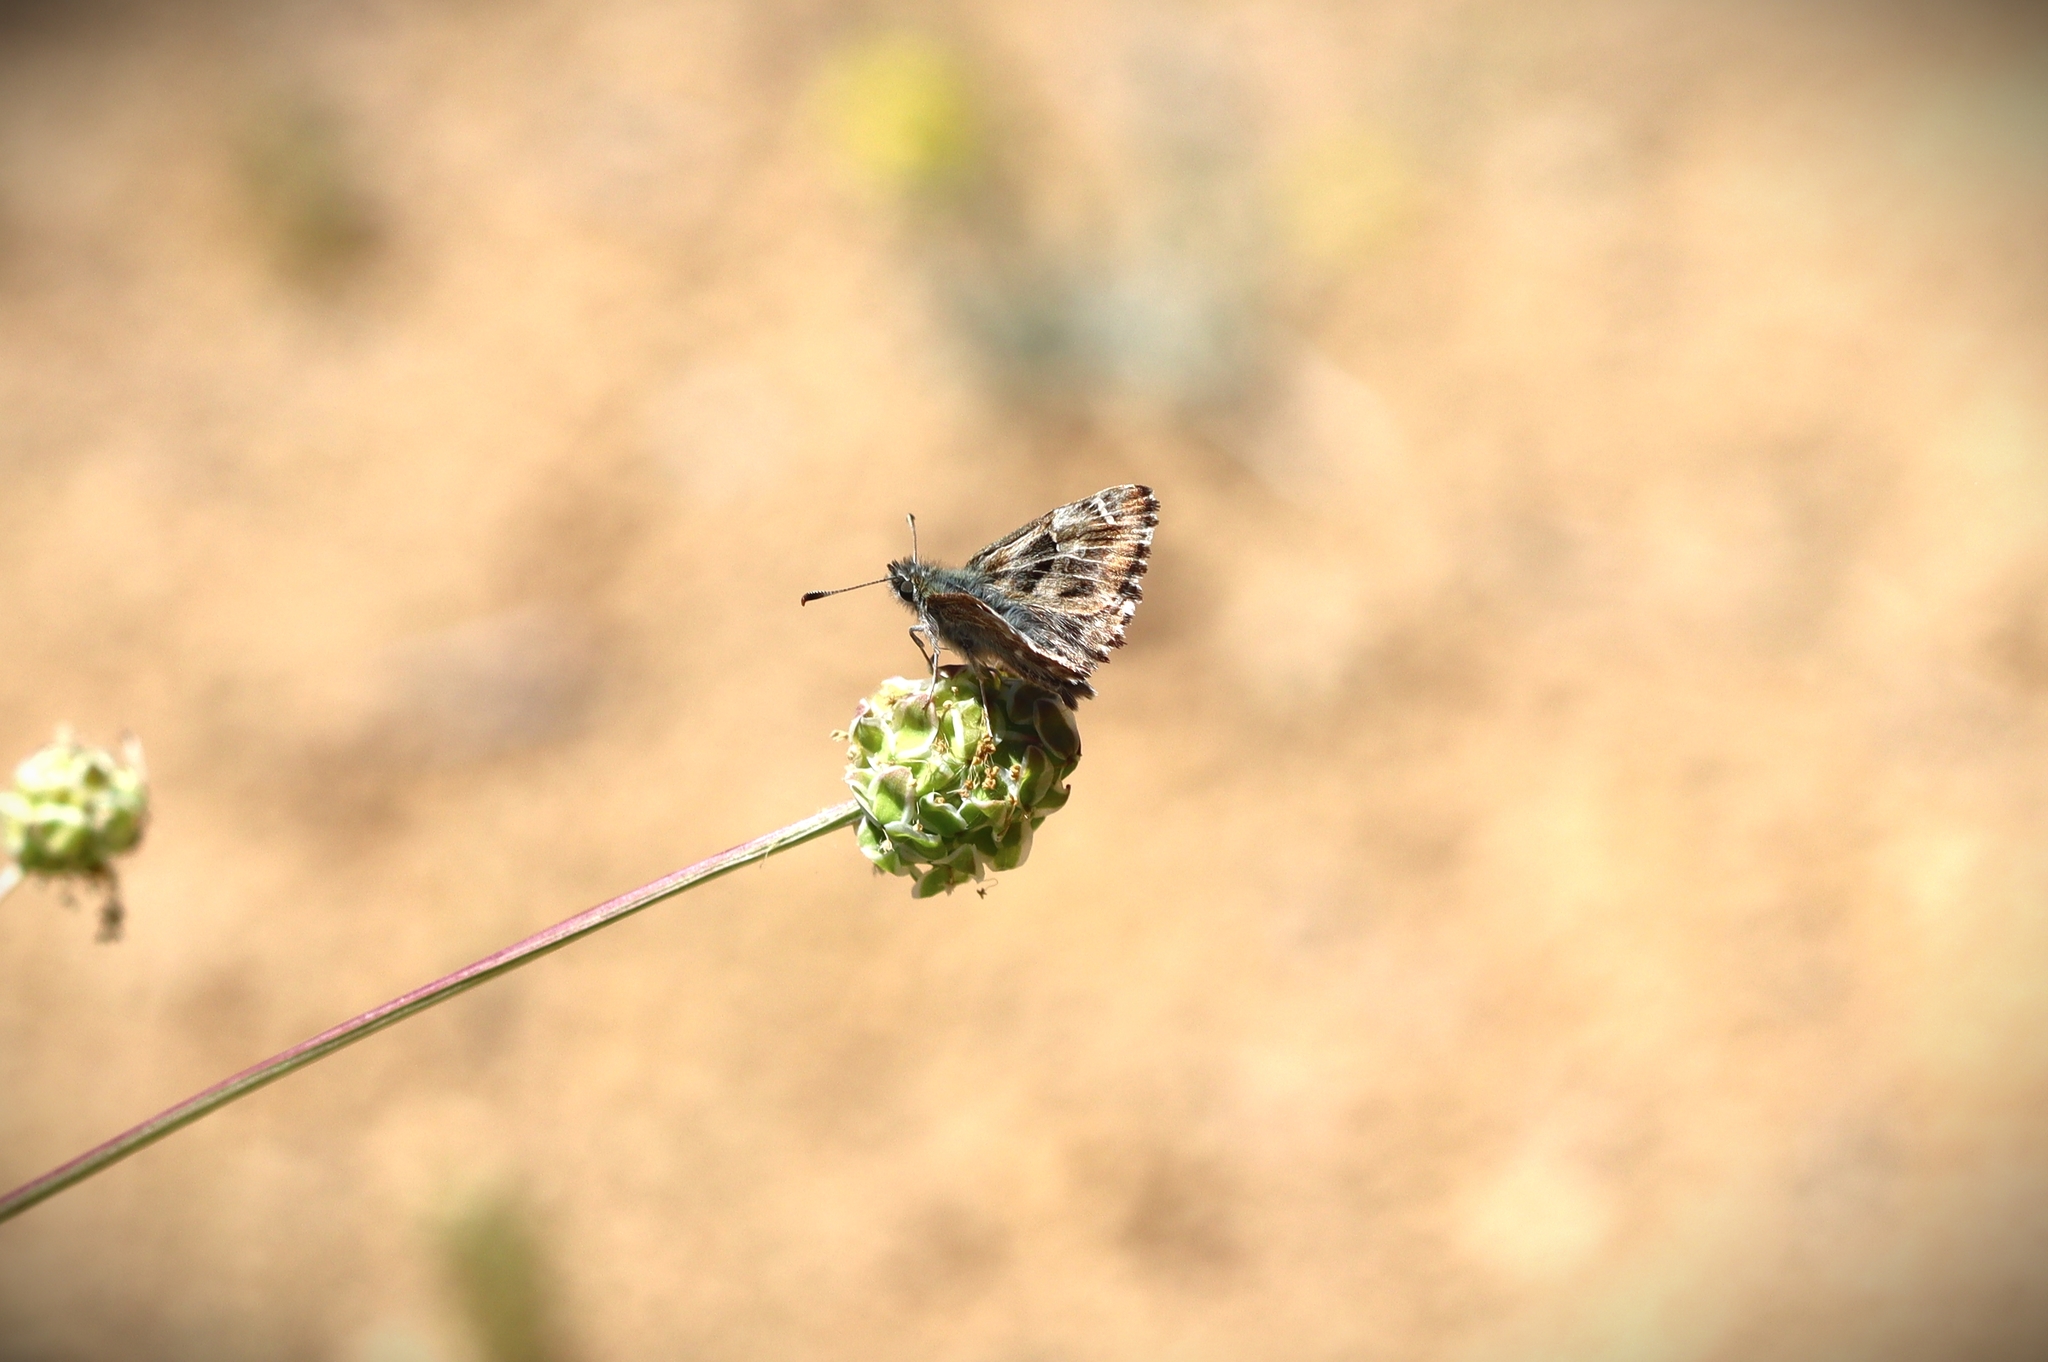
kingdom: Animalia
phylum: Arthropoda
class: Insecta
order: Lepidoptera
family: Hesperiidae
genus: Carcharodus
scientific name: Carcharodus alceae
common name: Mallow skipper
